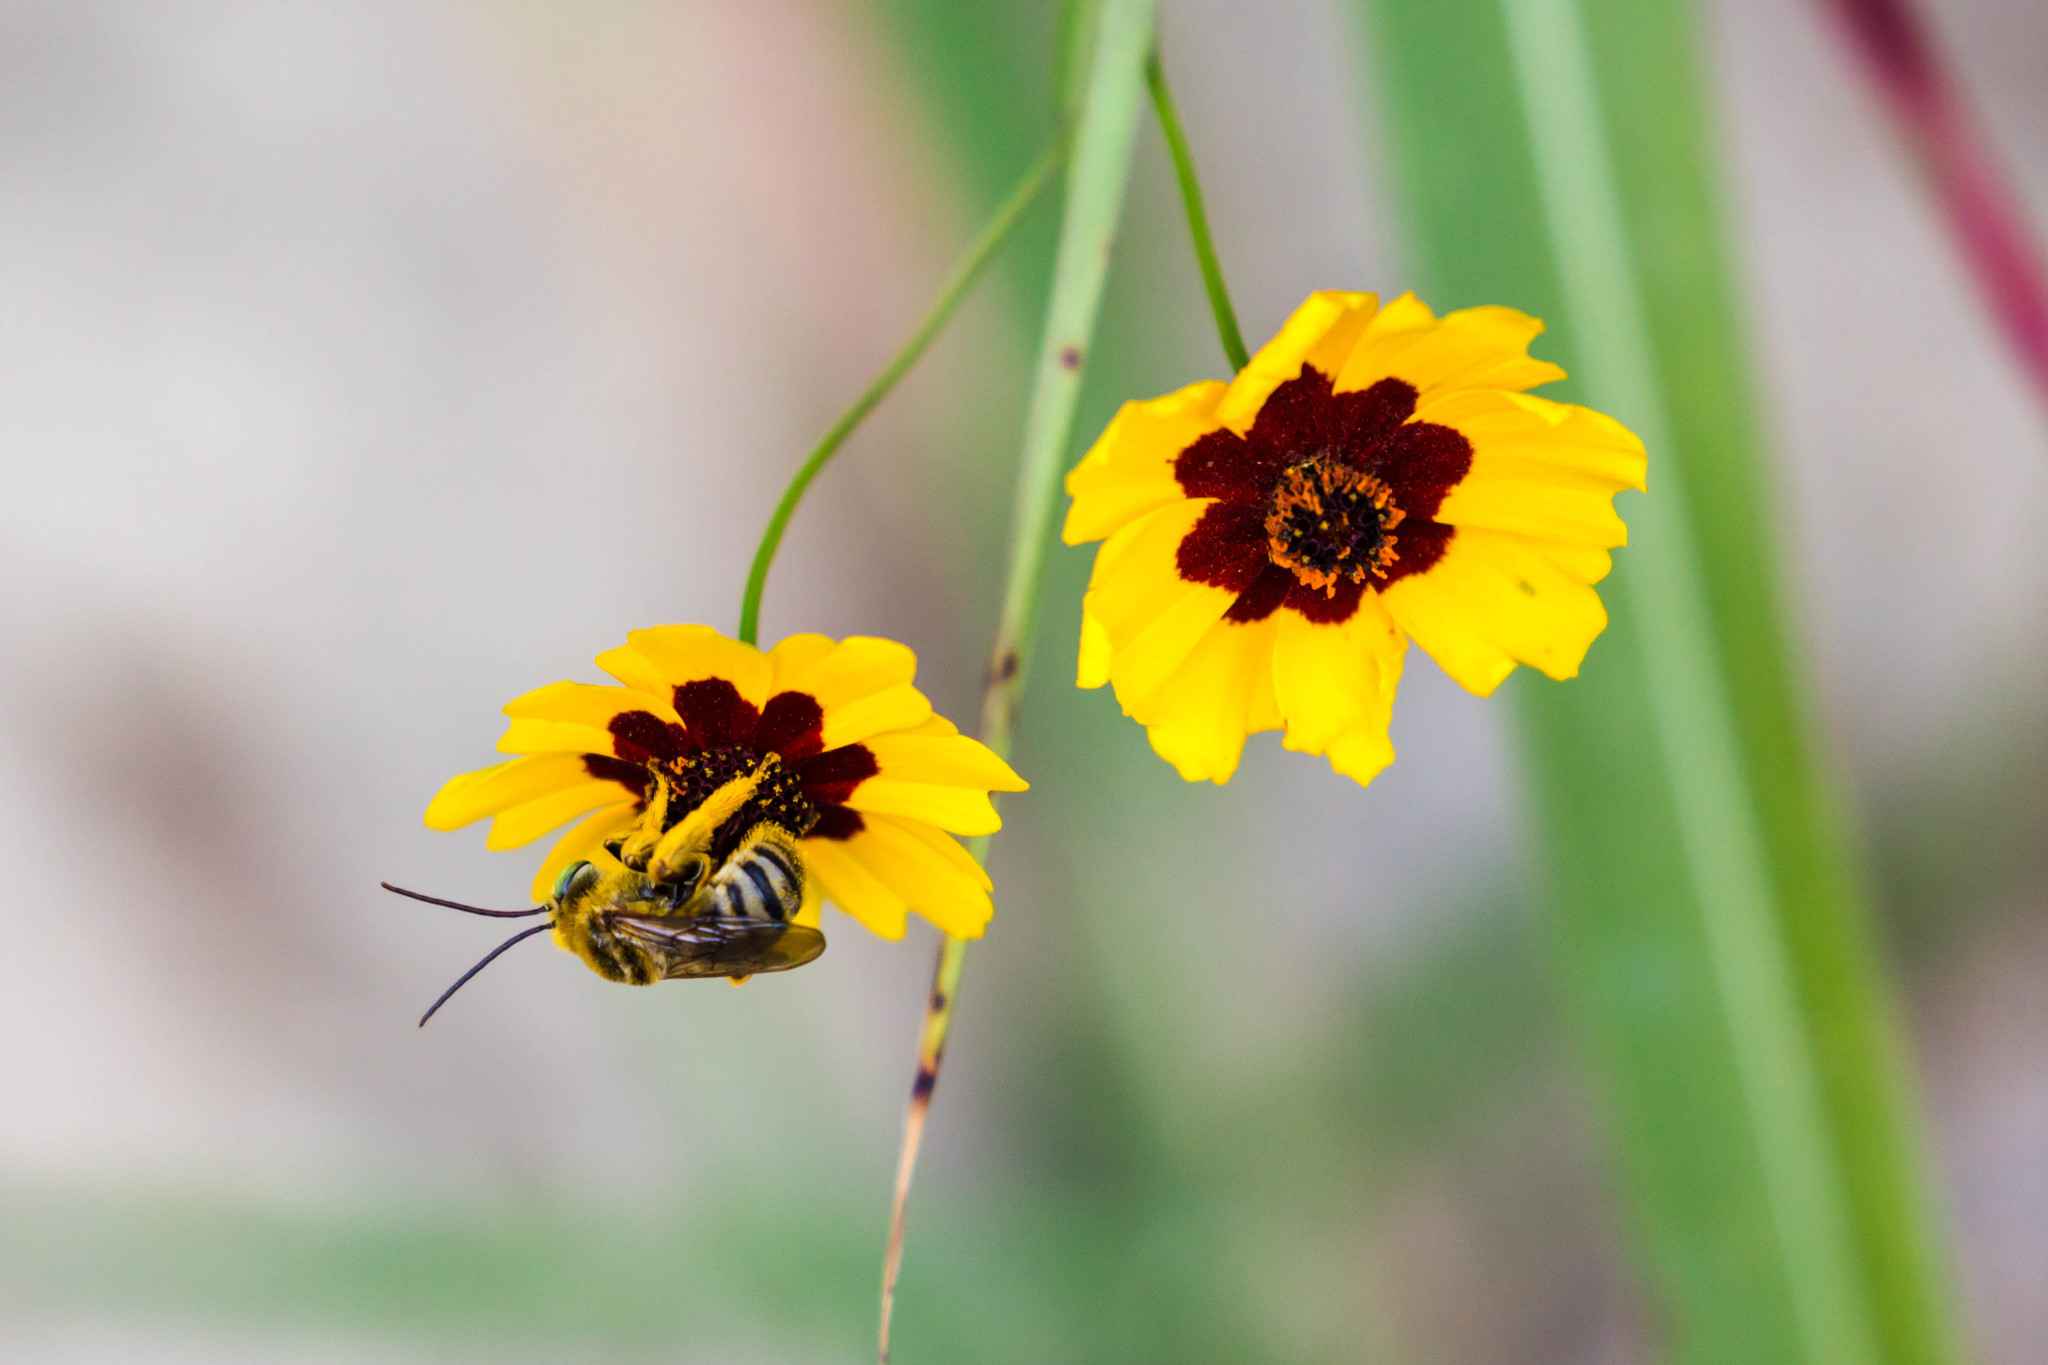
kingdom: Animalia
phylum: Arthropoda
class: Insecta
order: Hymenoptera
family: Apidae
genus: Svastra
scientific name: Svastra petulca
